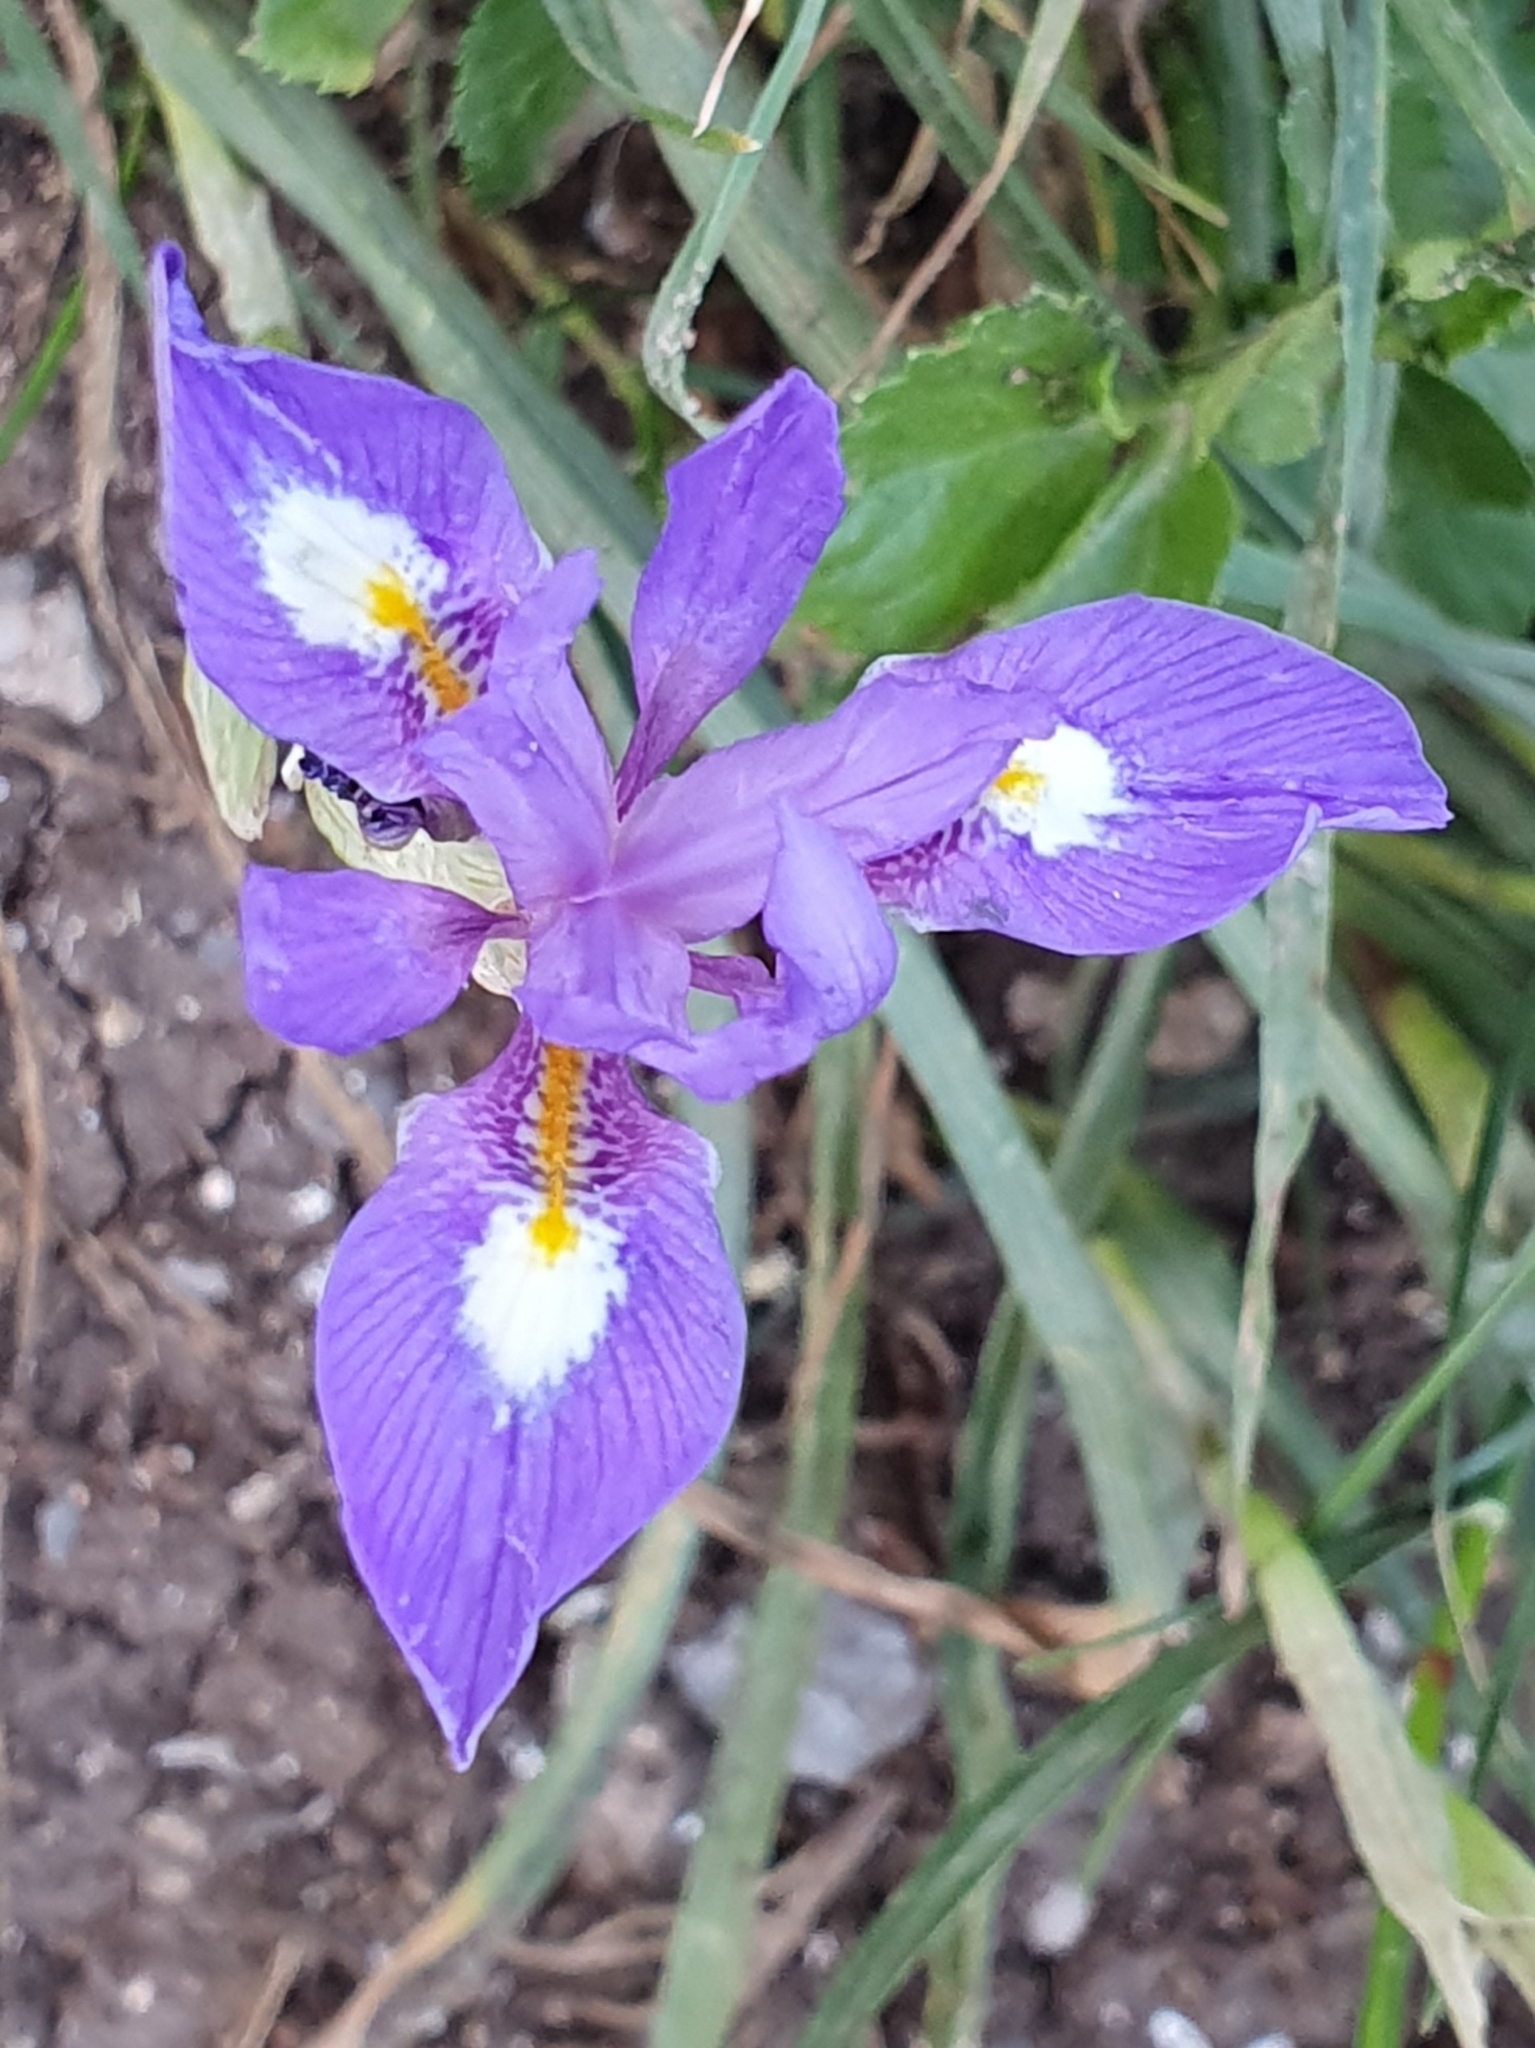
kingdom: Plantae
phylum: Tracheophyta
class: Liliopsida
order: Asparagales
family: Iridaceae
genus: Moraea
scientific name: Moraea sisyrinchium
